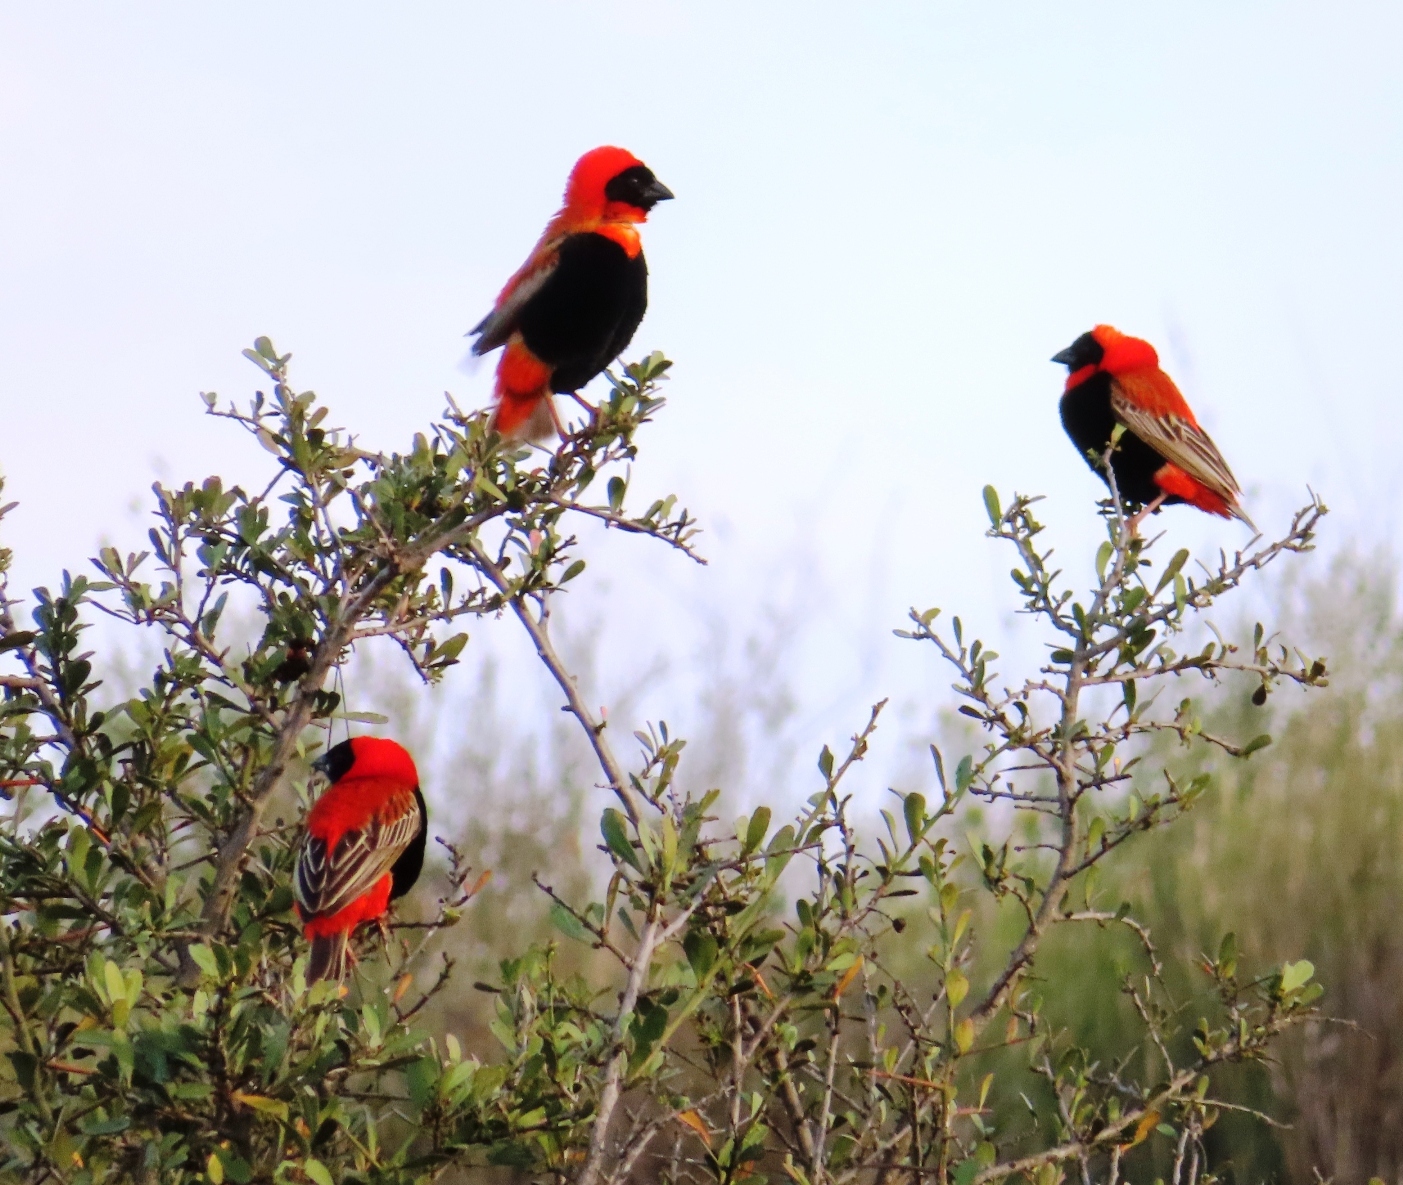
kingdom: Animalia
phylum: Chordata
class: Aves
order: Passeriformes
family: Ploceidae
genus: Euplectes
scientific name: Euplectes orix
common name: Southern red bishop
